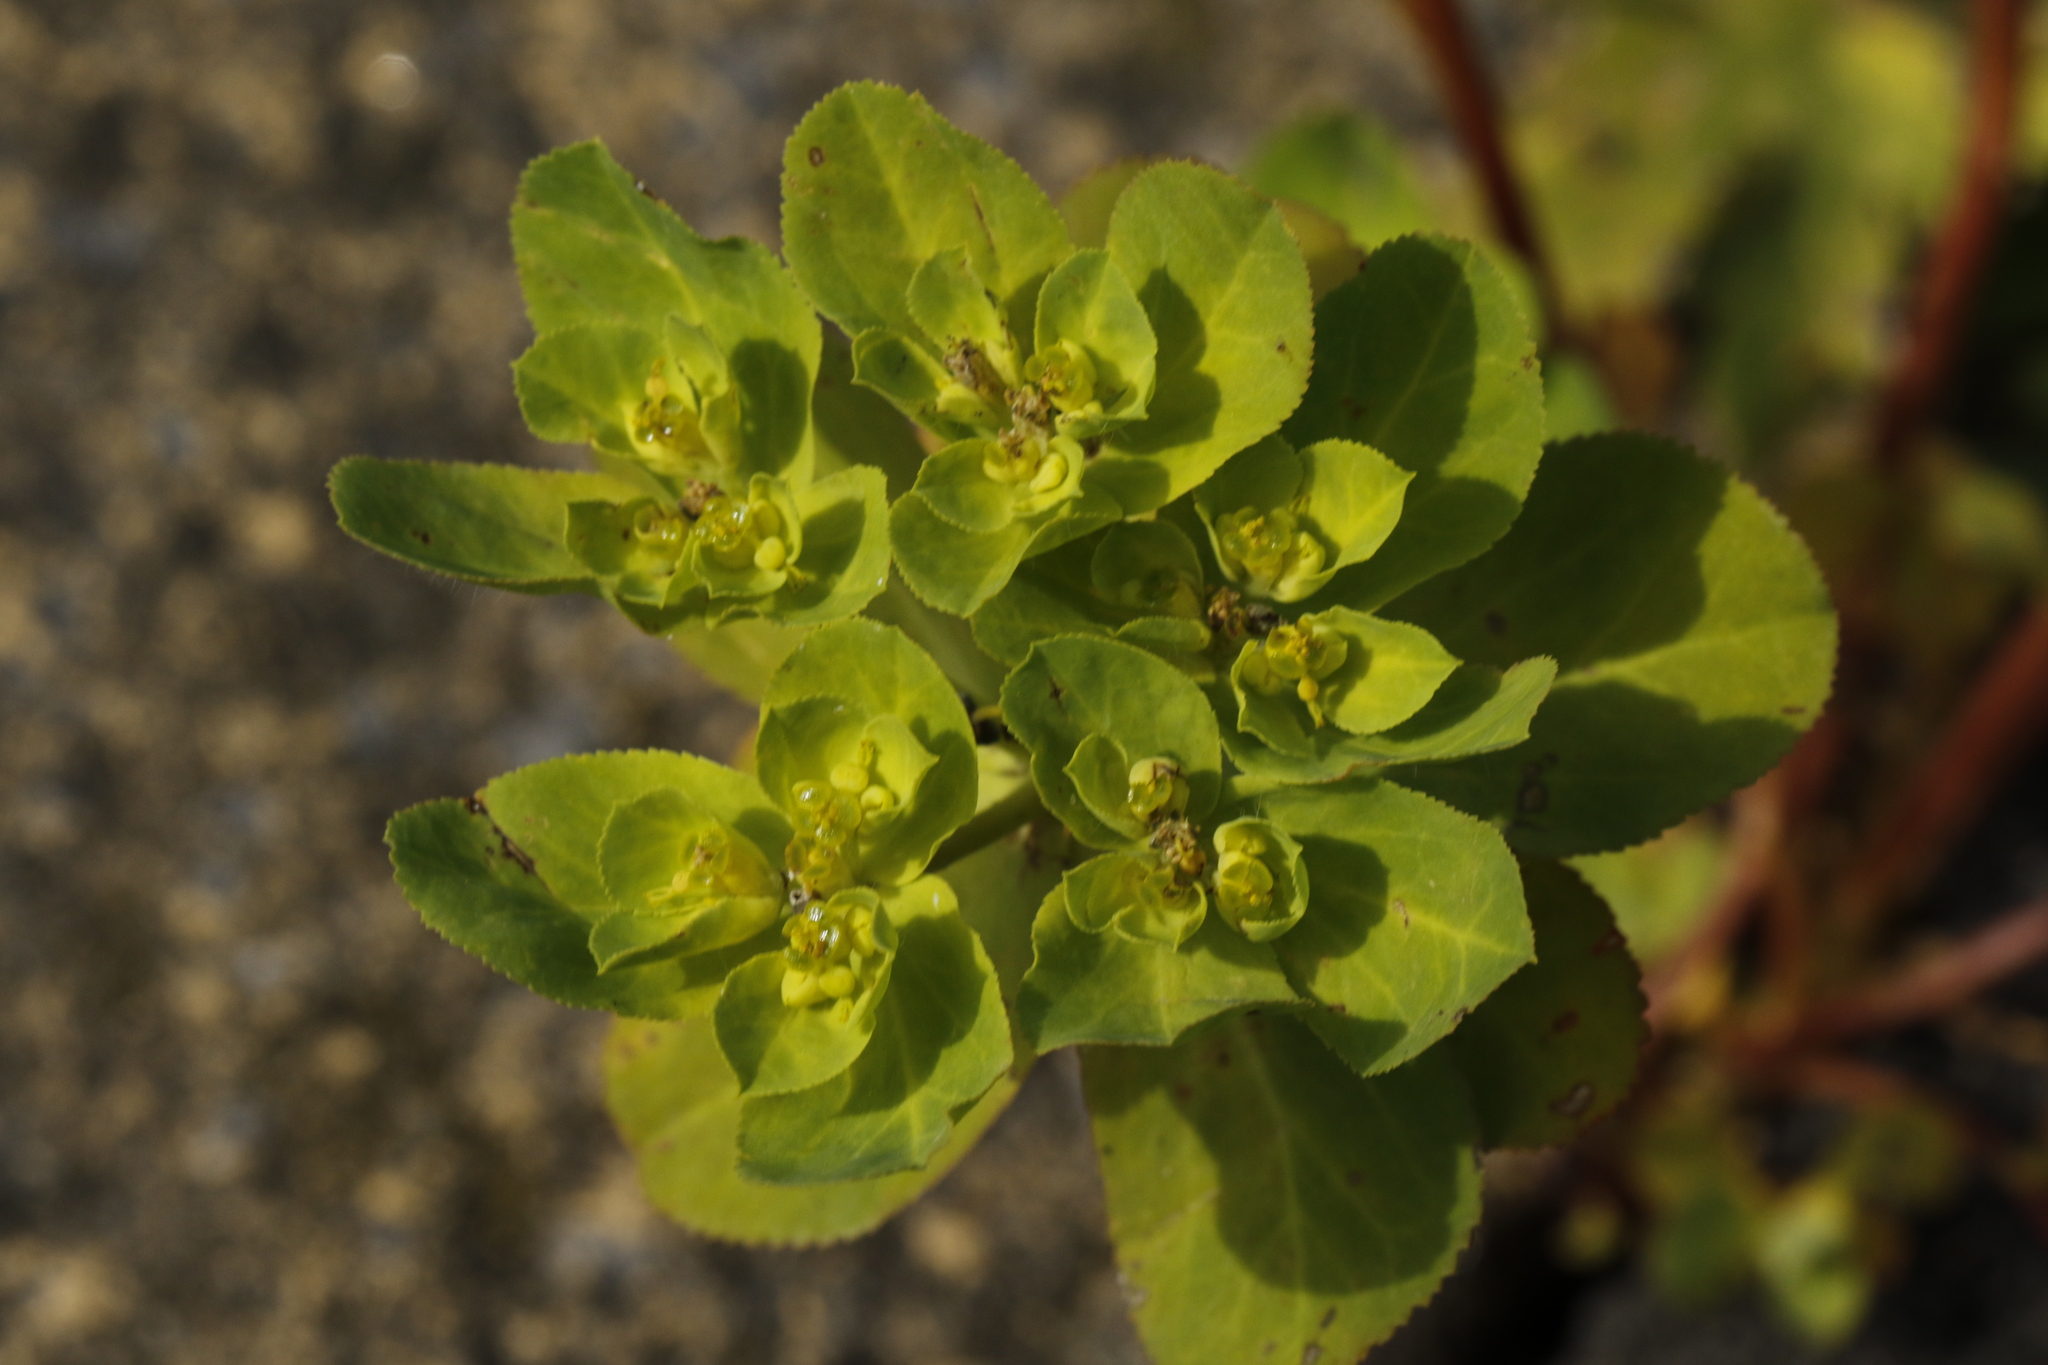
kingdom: Plantae
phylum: Tracheophyta
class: Magnoliopsida
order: Malpighiales
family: Euphorbiaceae
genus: Euphorbia
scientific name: Euphorbia helioscopia
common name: Sun spurge
